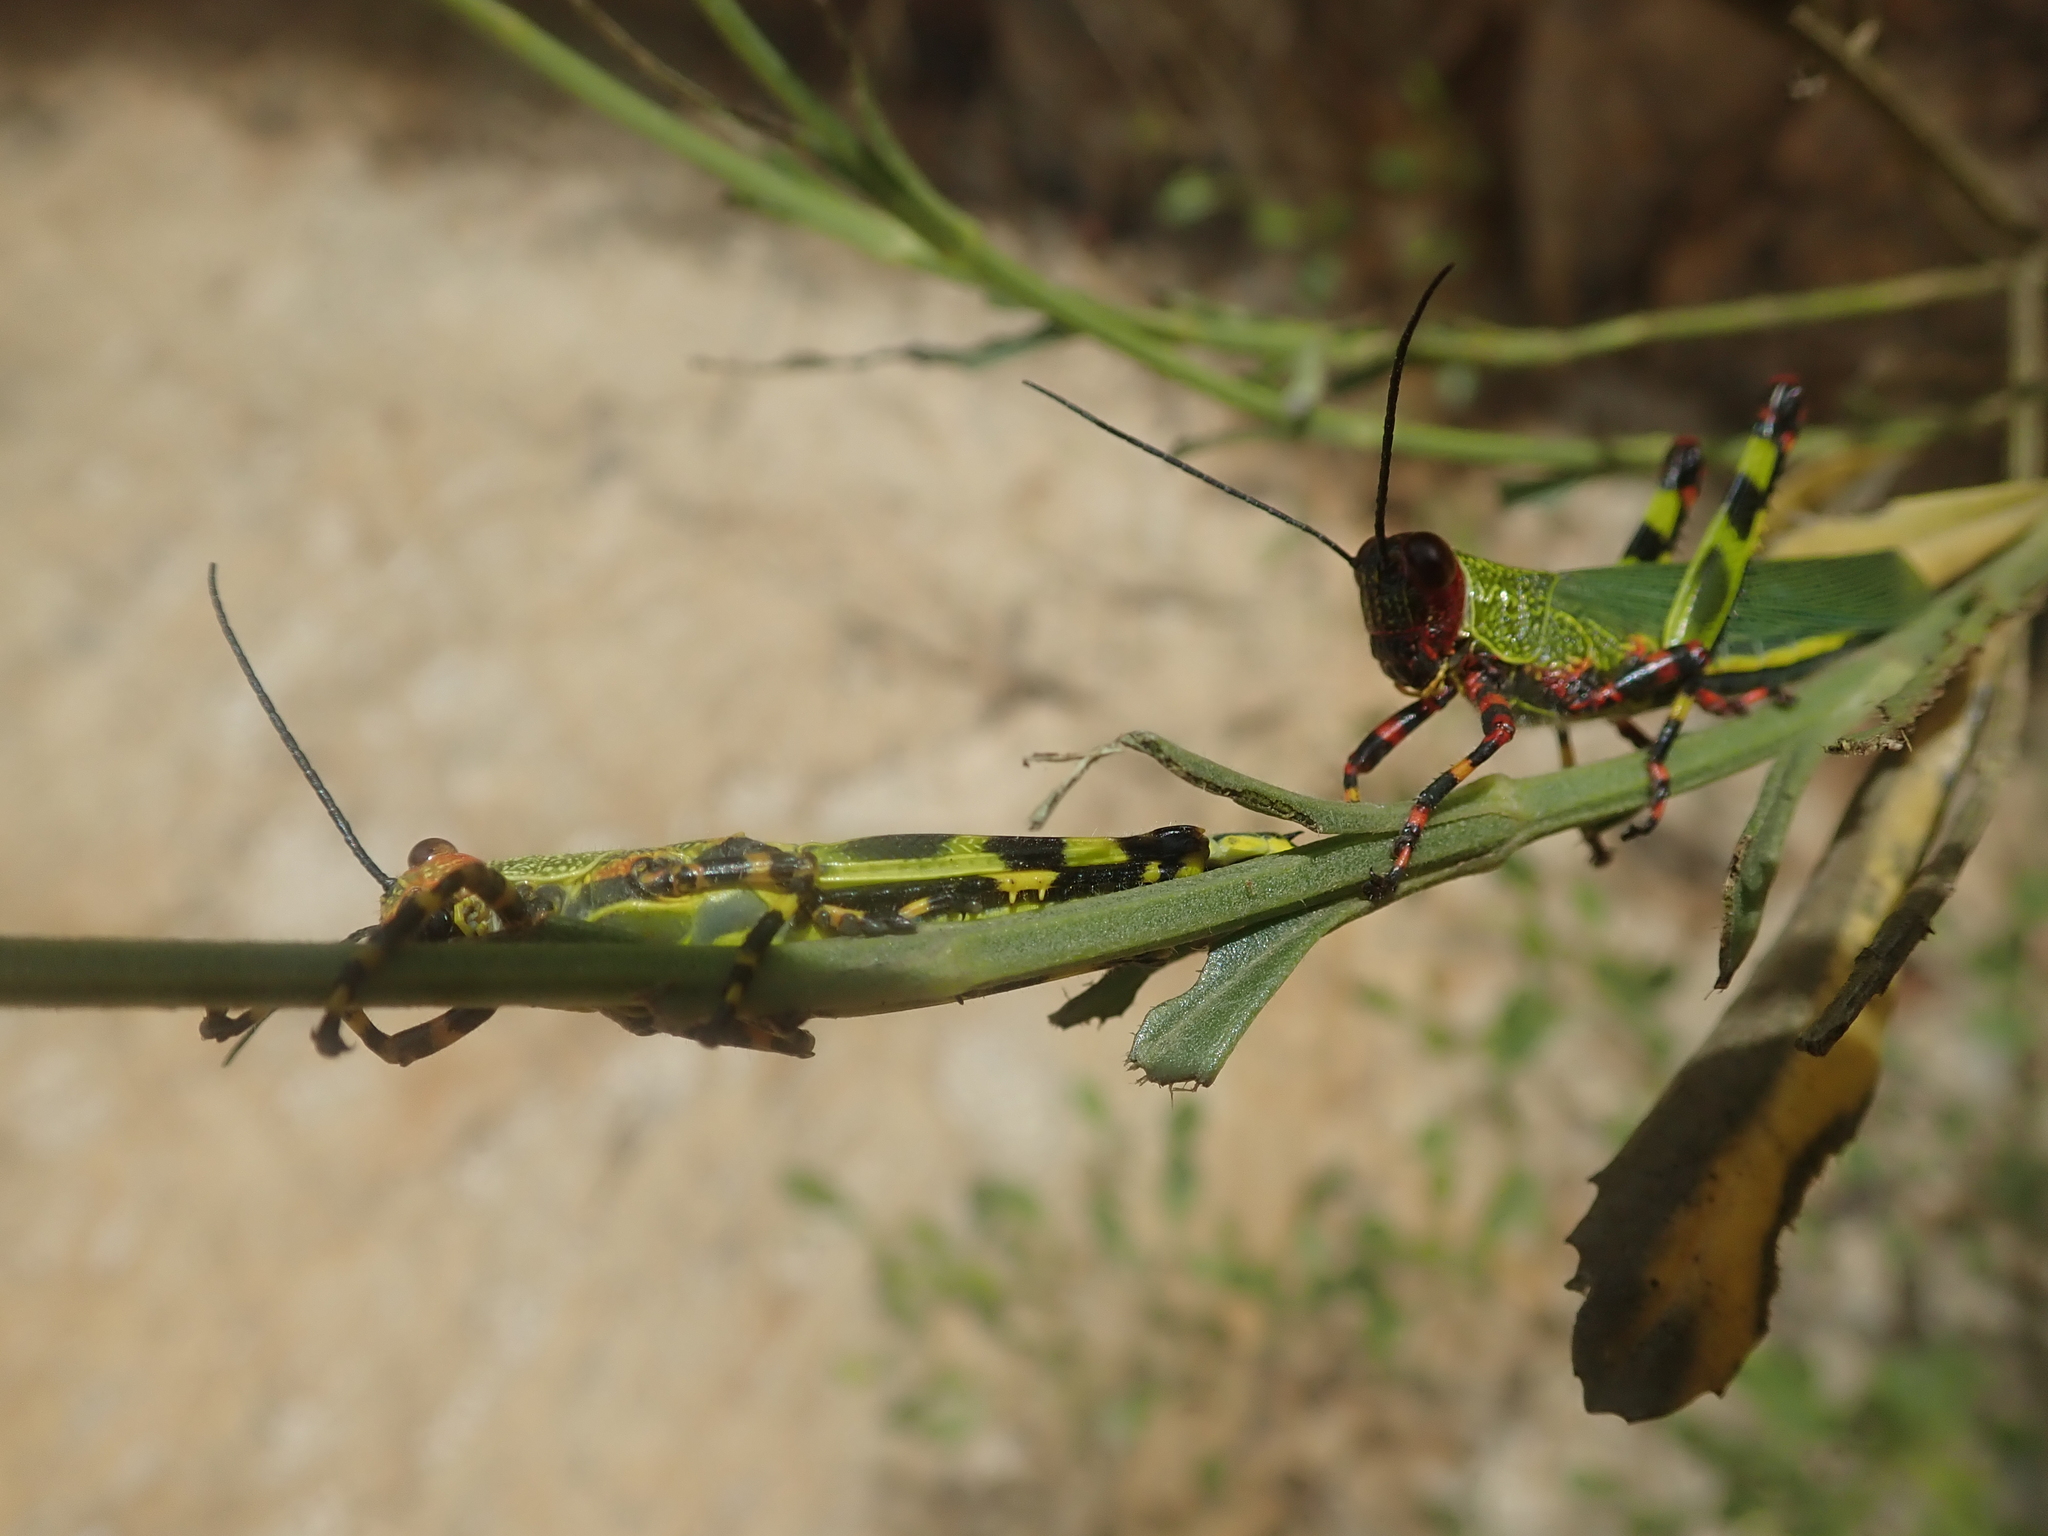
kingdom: Animalia
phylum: Arthropoda
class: Insecta
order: Orthoptera
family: Romaleidae
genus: Zoniopoda
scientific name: Zoniopoda tarsata
